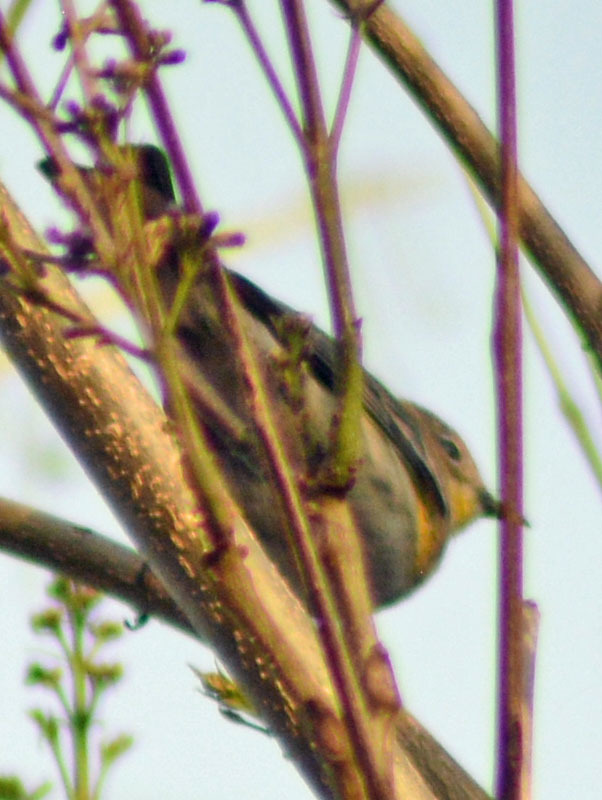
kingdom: Animalia
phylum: Chordata
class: Aves
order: Passeriformes
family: Parulidae
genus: Setophaga
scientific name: Setophaga coronata
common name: Myrtle warbler
